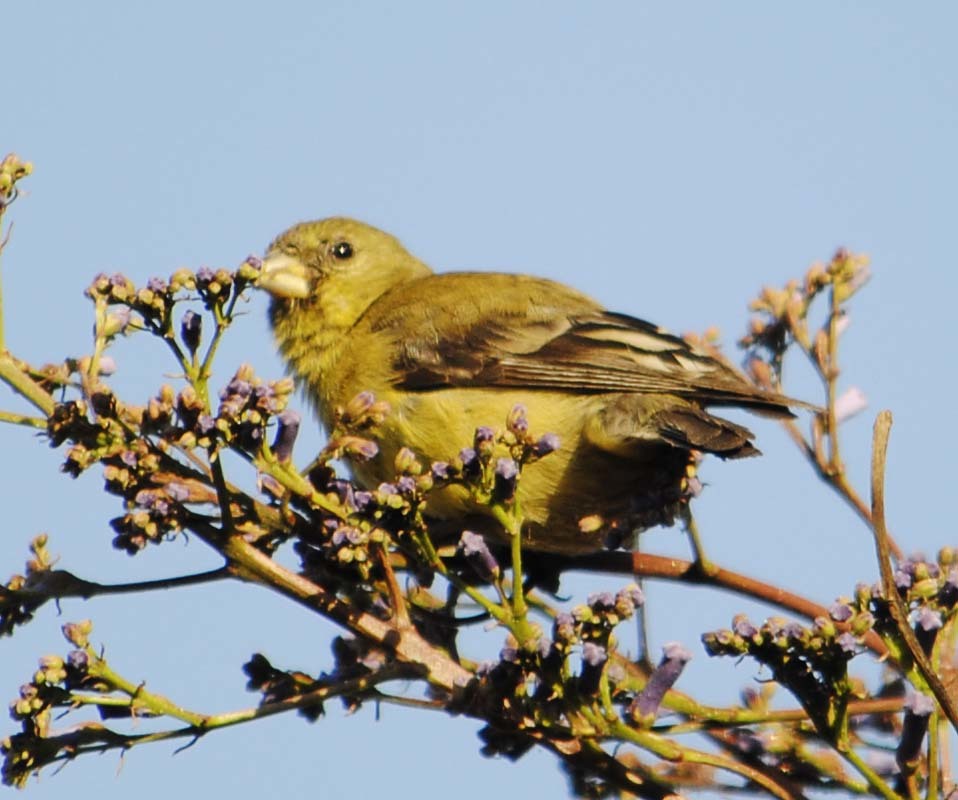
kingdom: Animalia
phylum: Chordata
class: Aves
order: Passeriformes
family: Fringillidae
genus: Spinus
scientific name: Spinus psaltria
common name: Lesser goldfinch
